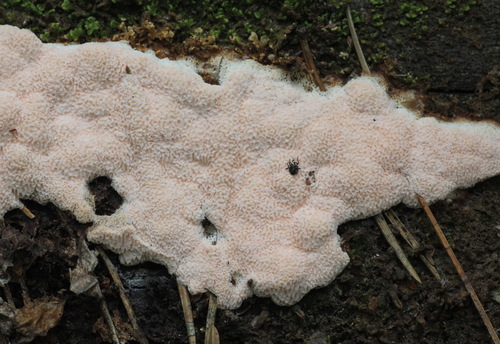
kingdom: Fungi
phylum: Basidiomycota
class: Agaricomycetes
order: Polyporales
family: Polyporaceae
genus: Rhodonia
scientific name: Rhodonia placenta
